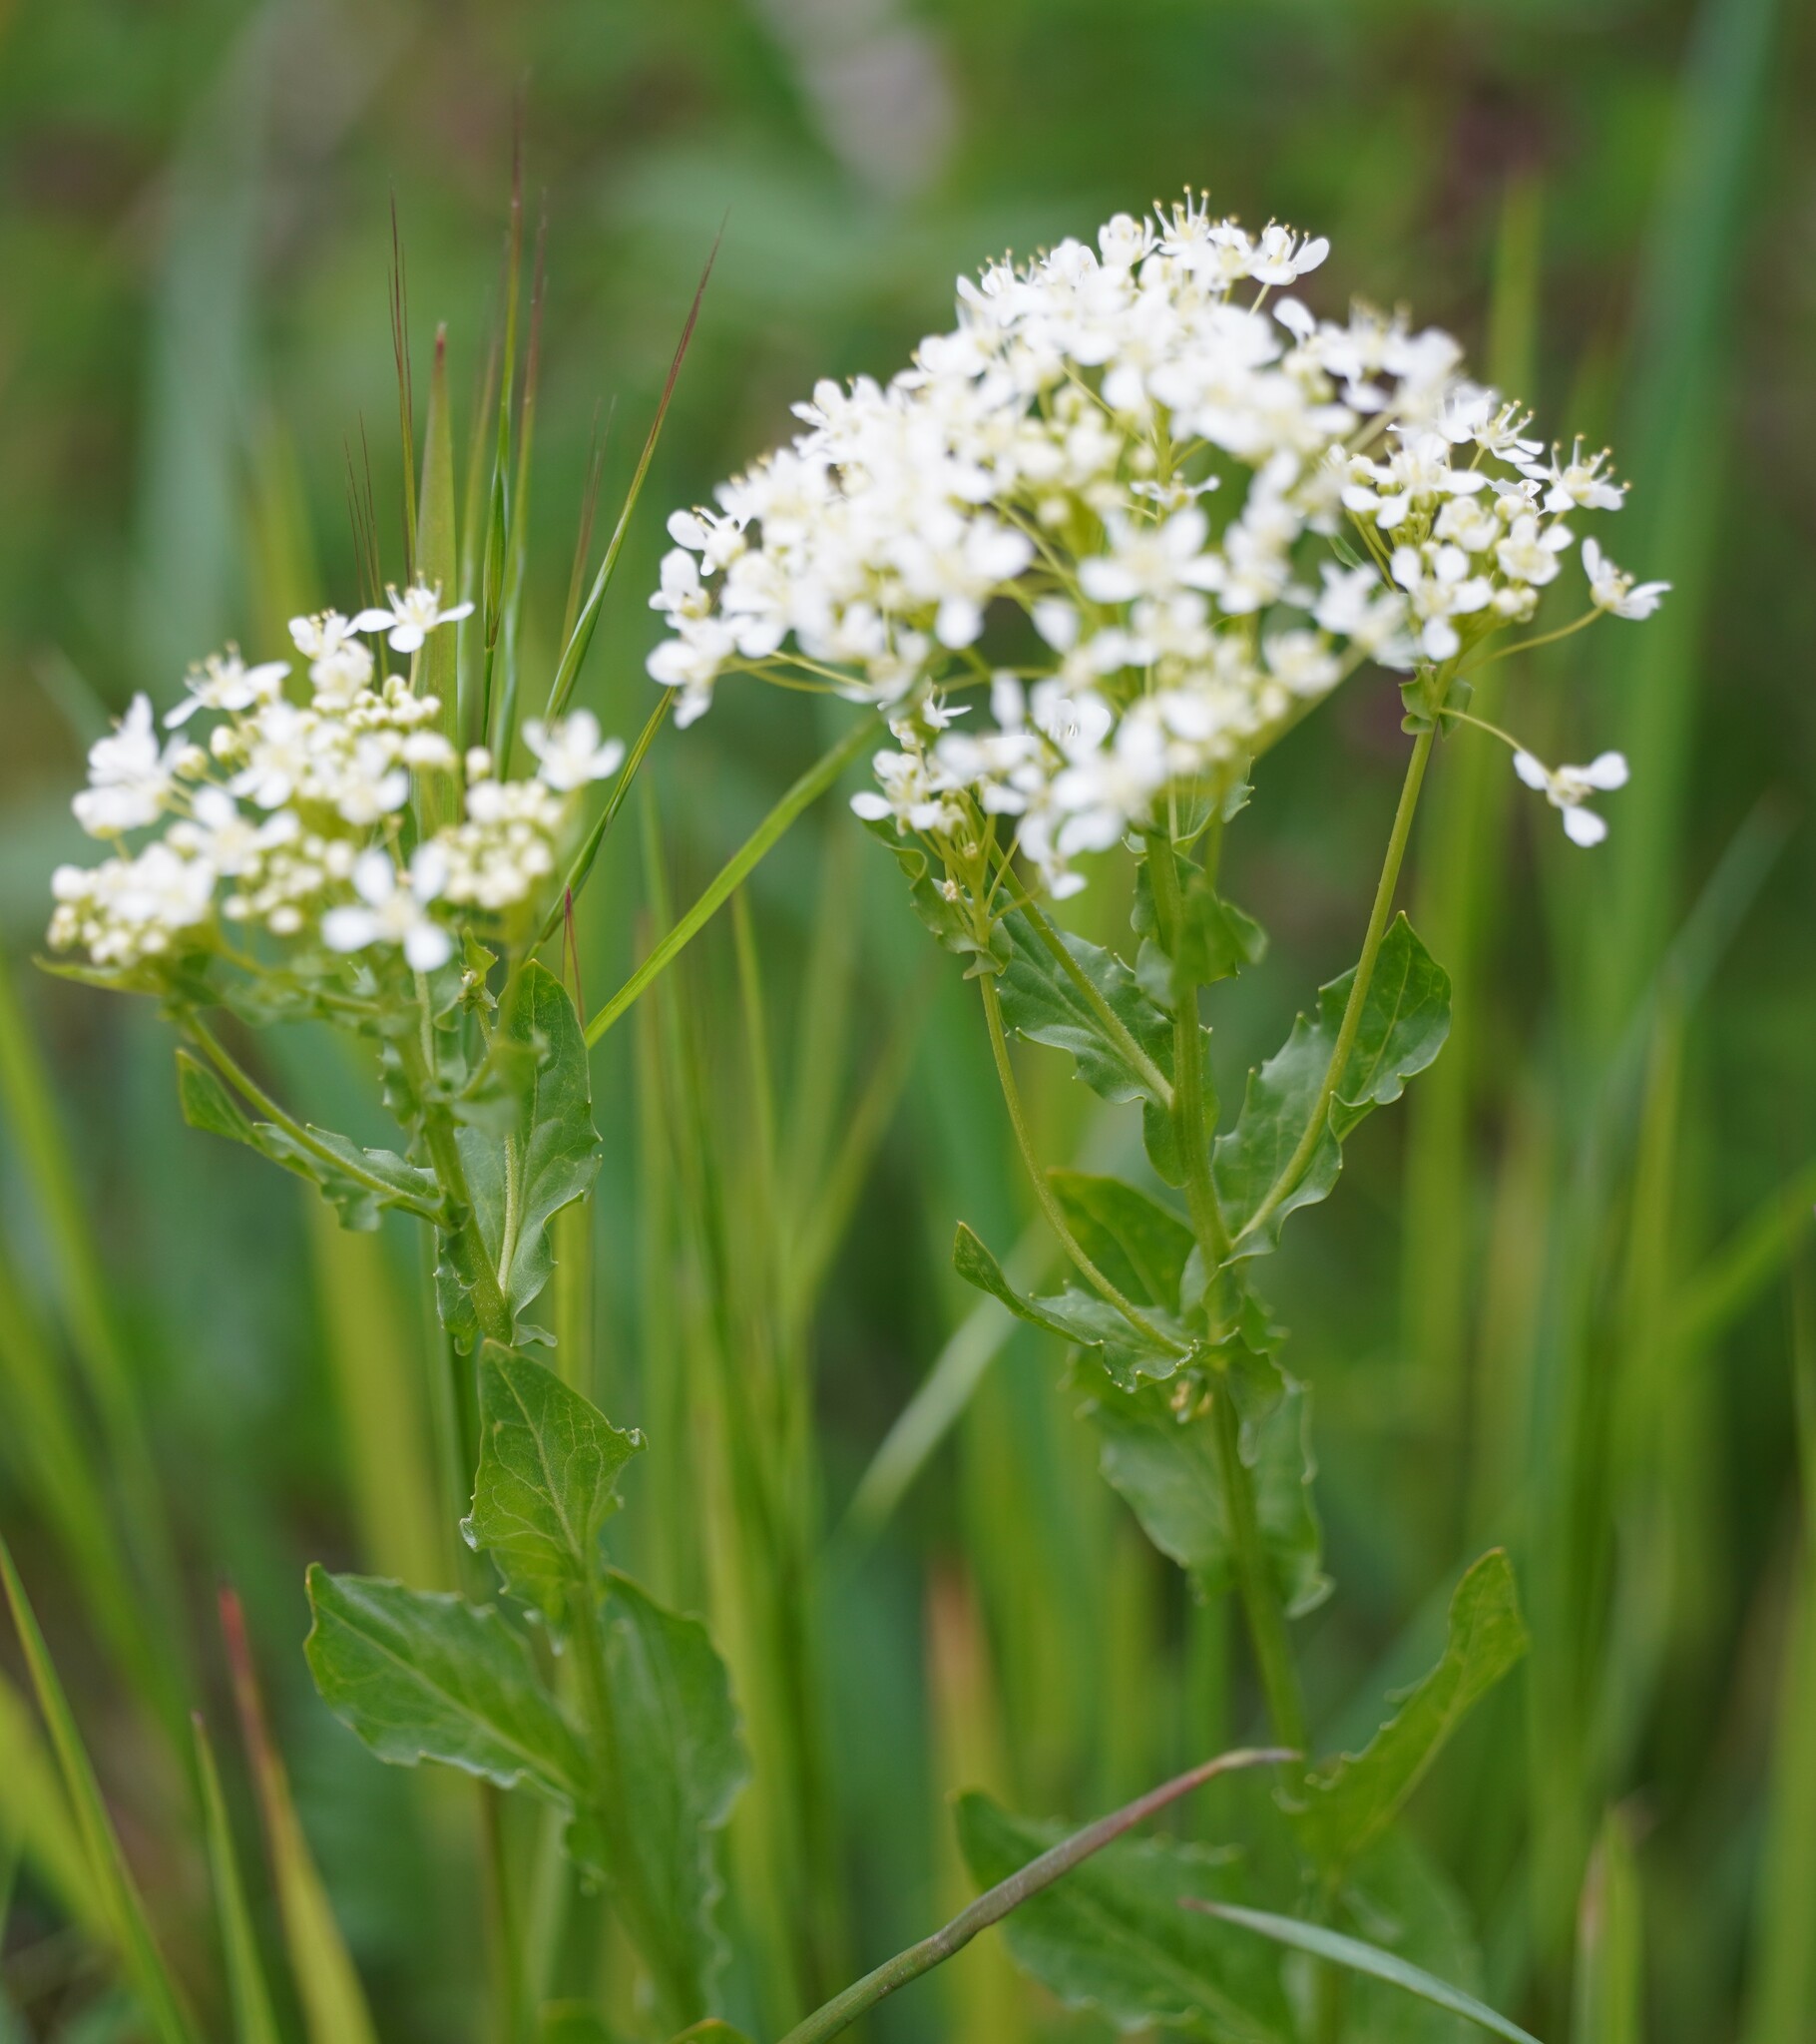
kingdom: Plantae
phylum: Tracheophyta
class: Magnoliopsida
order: Brassicales
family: Brassicaceae
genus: Lepidium
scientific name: Lepidium draba
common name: Hoary cress
